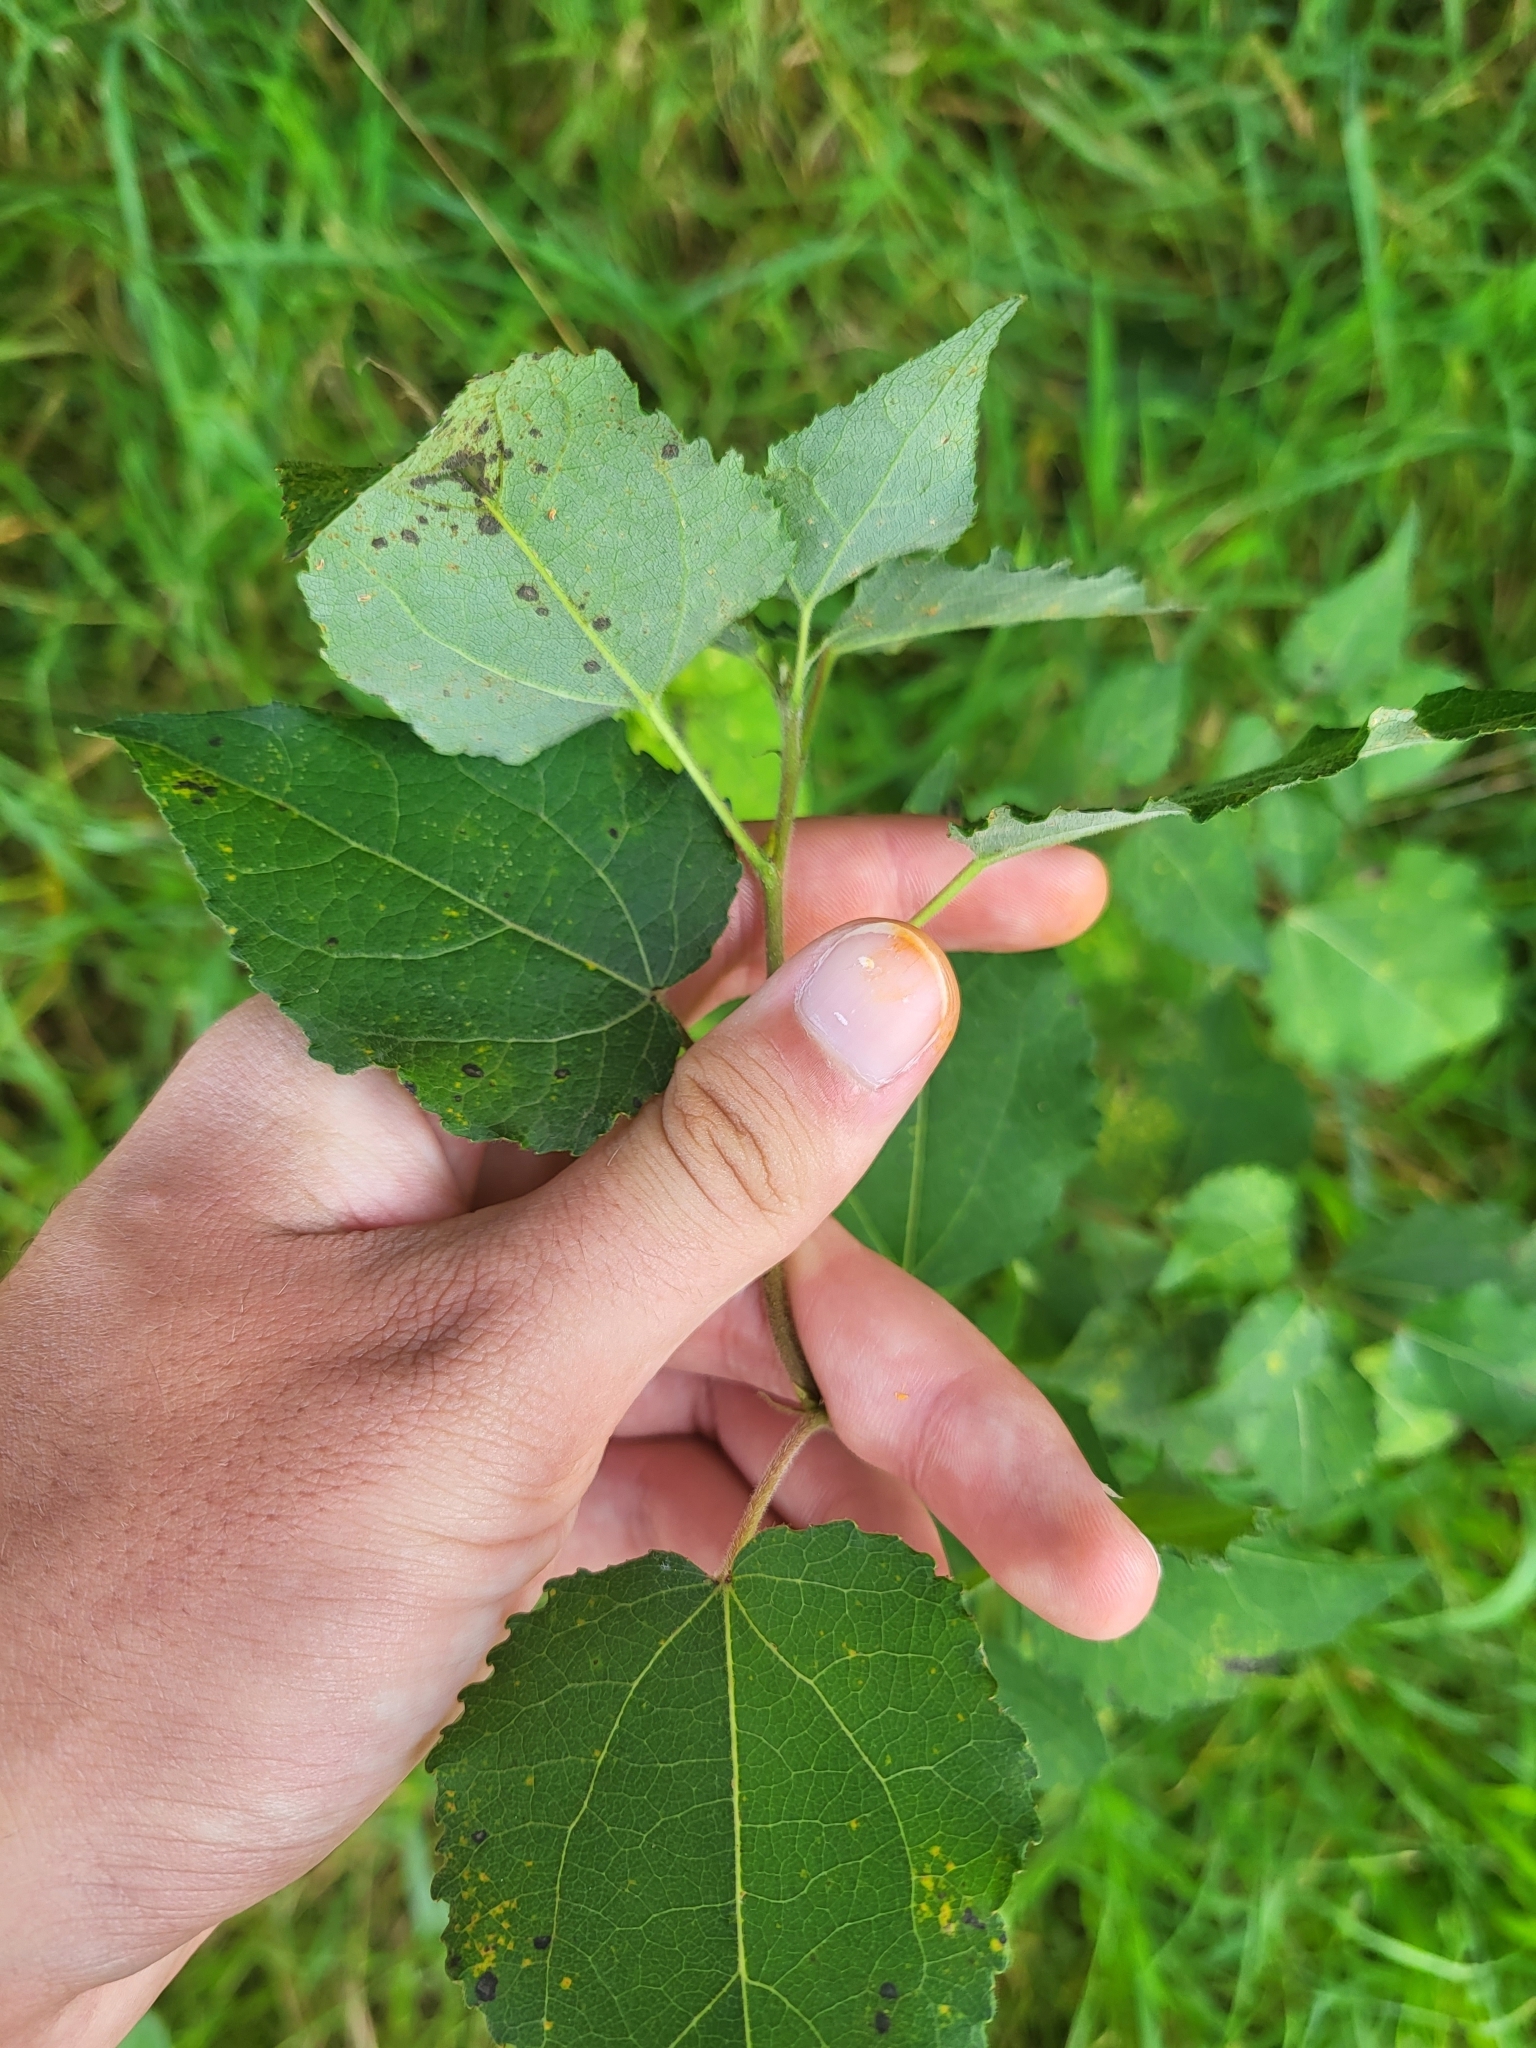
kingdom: Plantae
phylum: Tracheophyta
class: Magnoliopsida
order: Malpighiales
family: Salicaceae
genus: Populus
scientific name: Populus tremula
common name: European aspen
